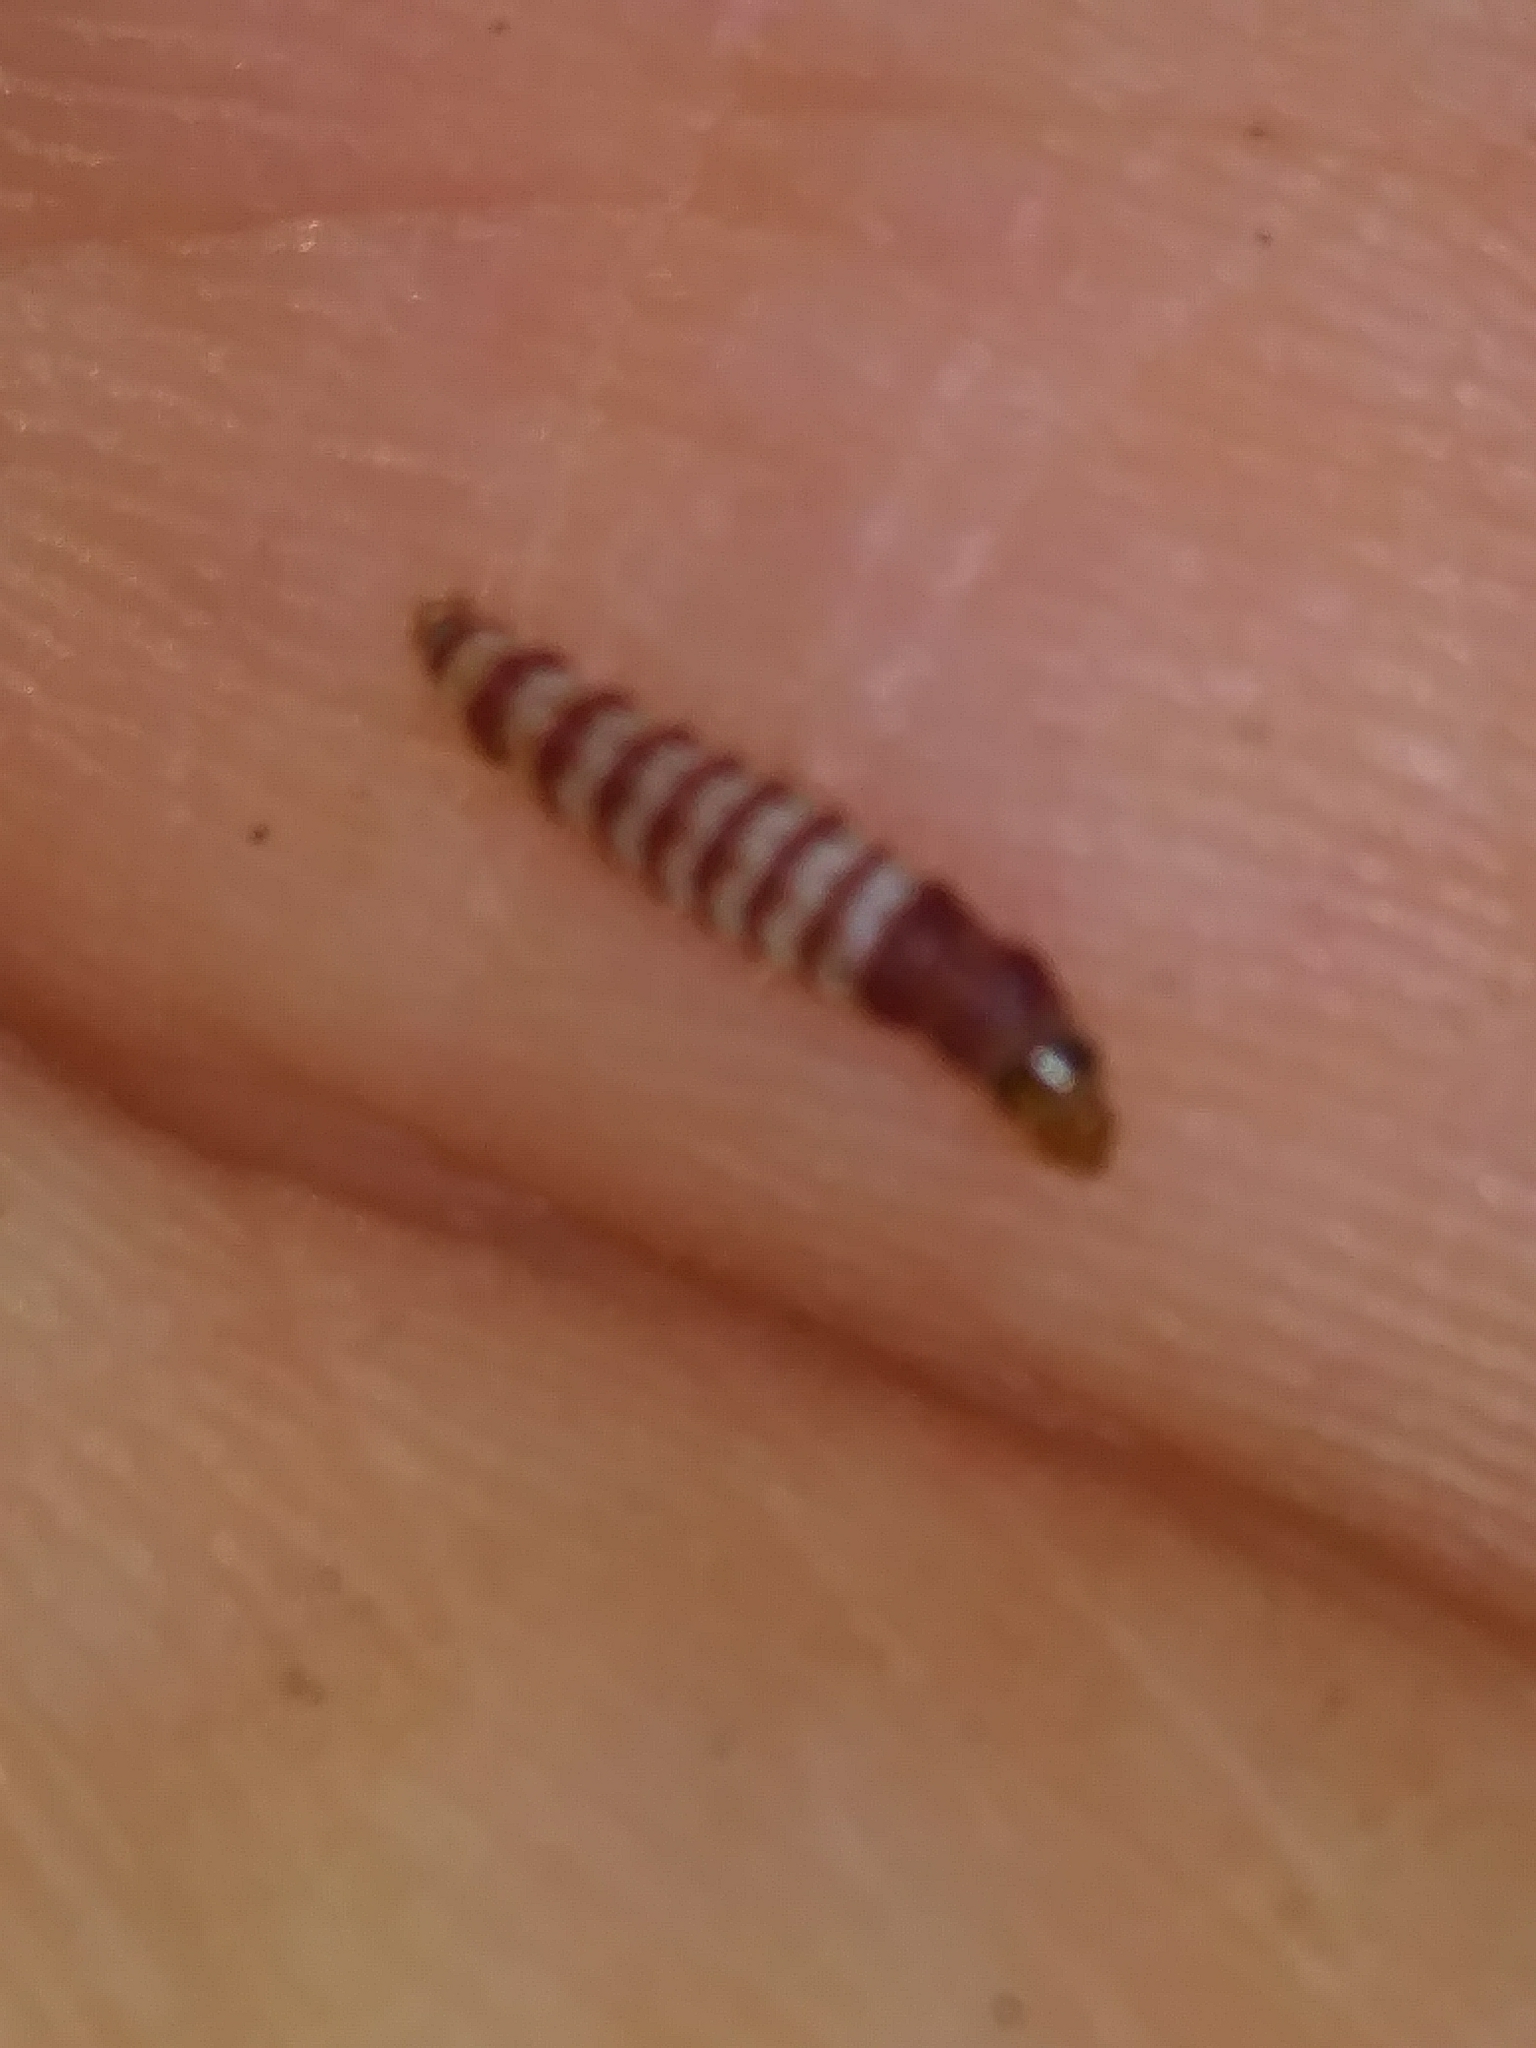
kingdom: Animalia
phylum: Arthropoda
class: Insecta
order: Lepidoptera
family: Gelechiidae
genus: Arogalea
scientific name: Arogalea cristifasciella
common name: White stripe-backed moth
